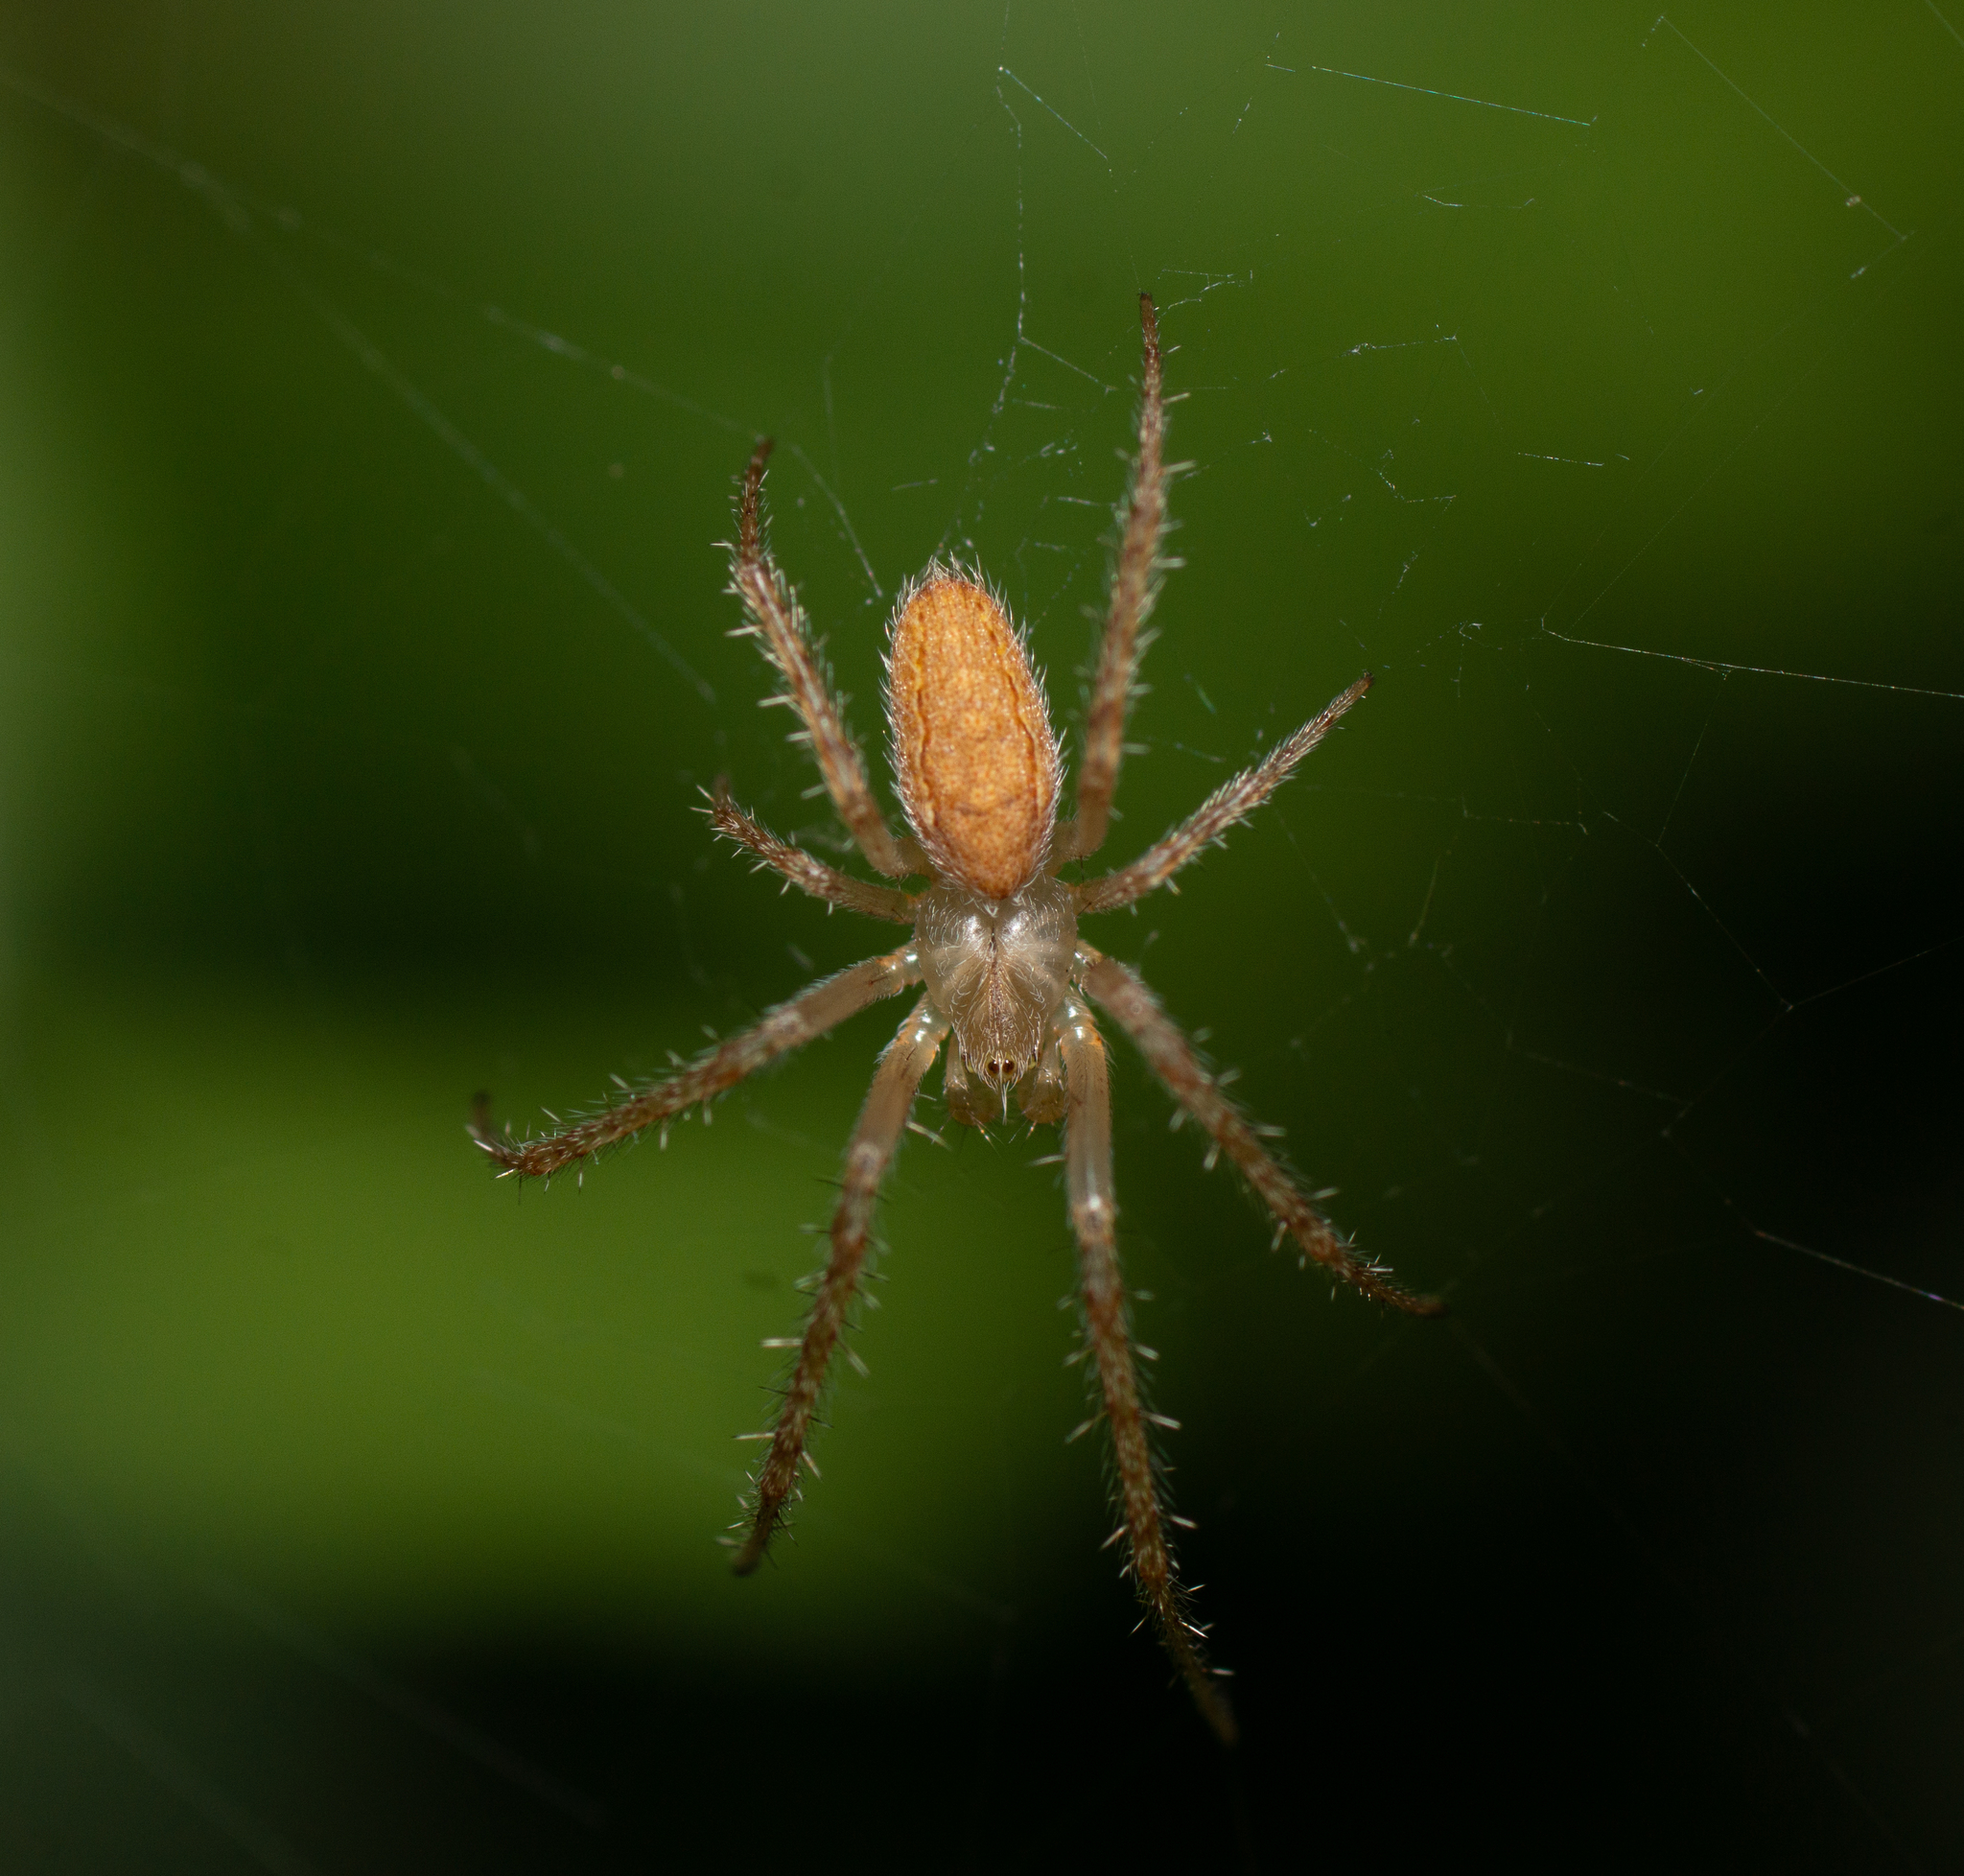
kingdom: Animalia
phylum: Arthropoda
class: Arachnida
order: Araneae
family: Araneidae
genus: Larinia
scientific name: Larinia lineata
